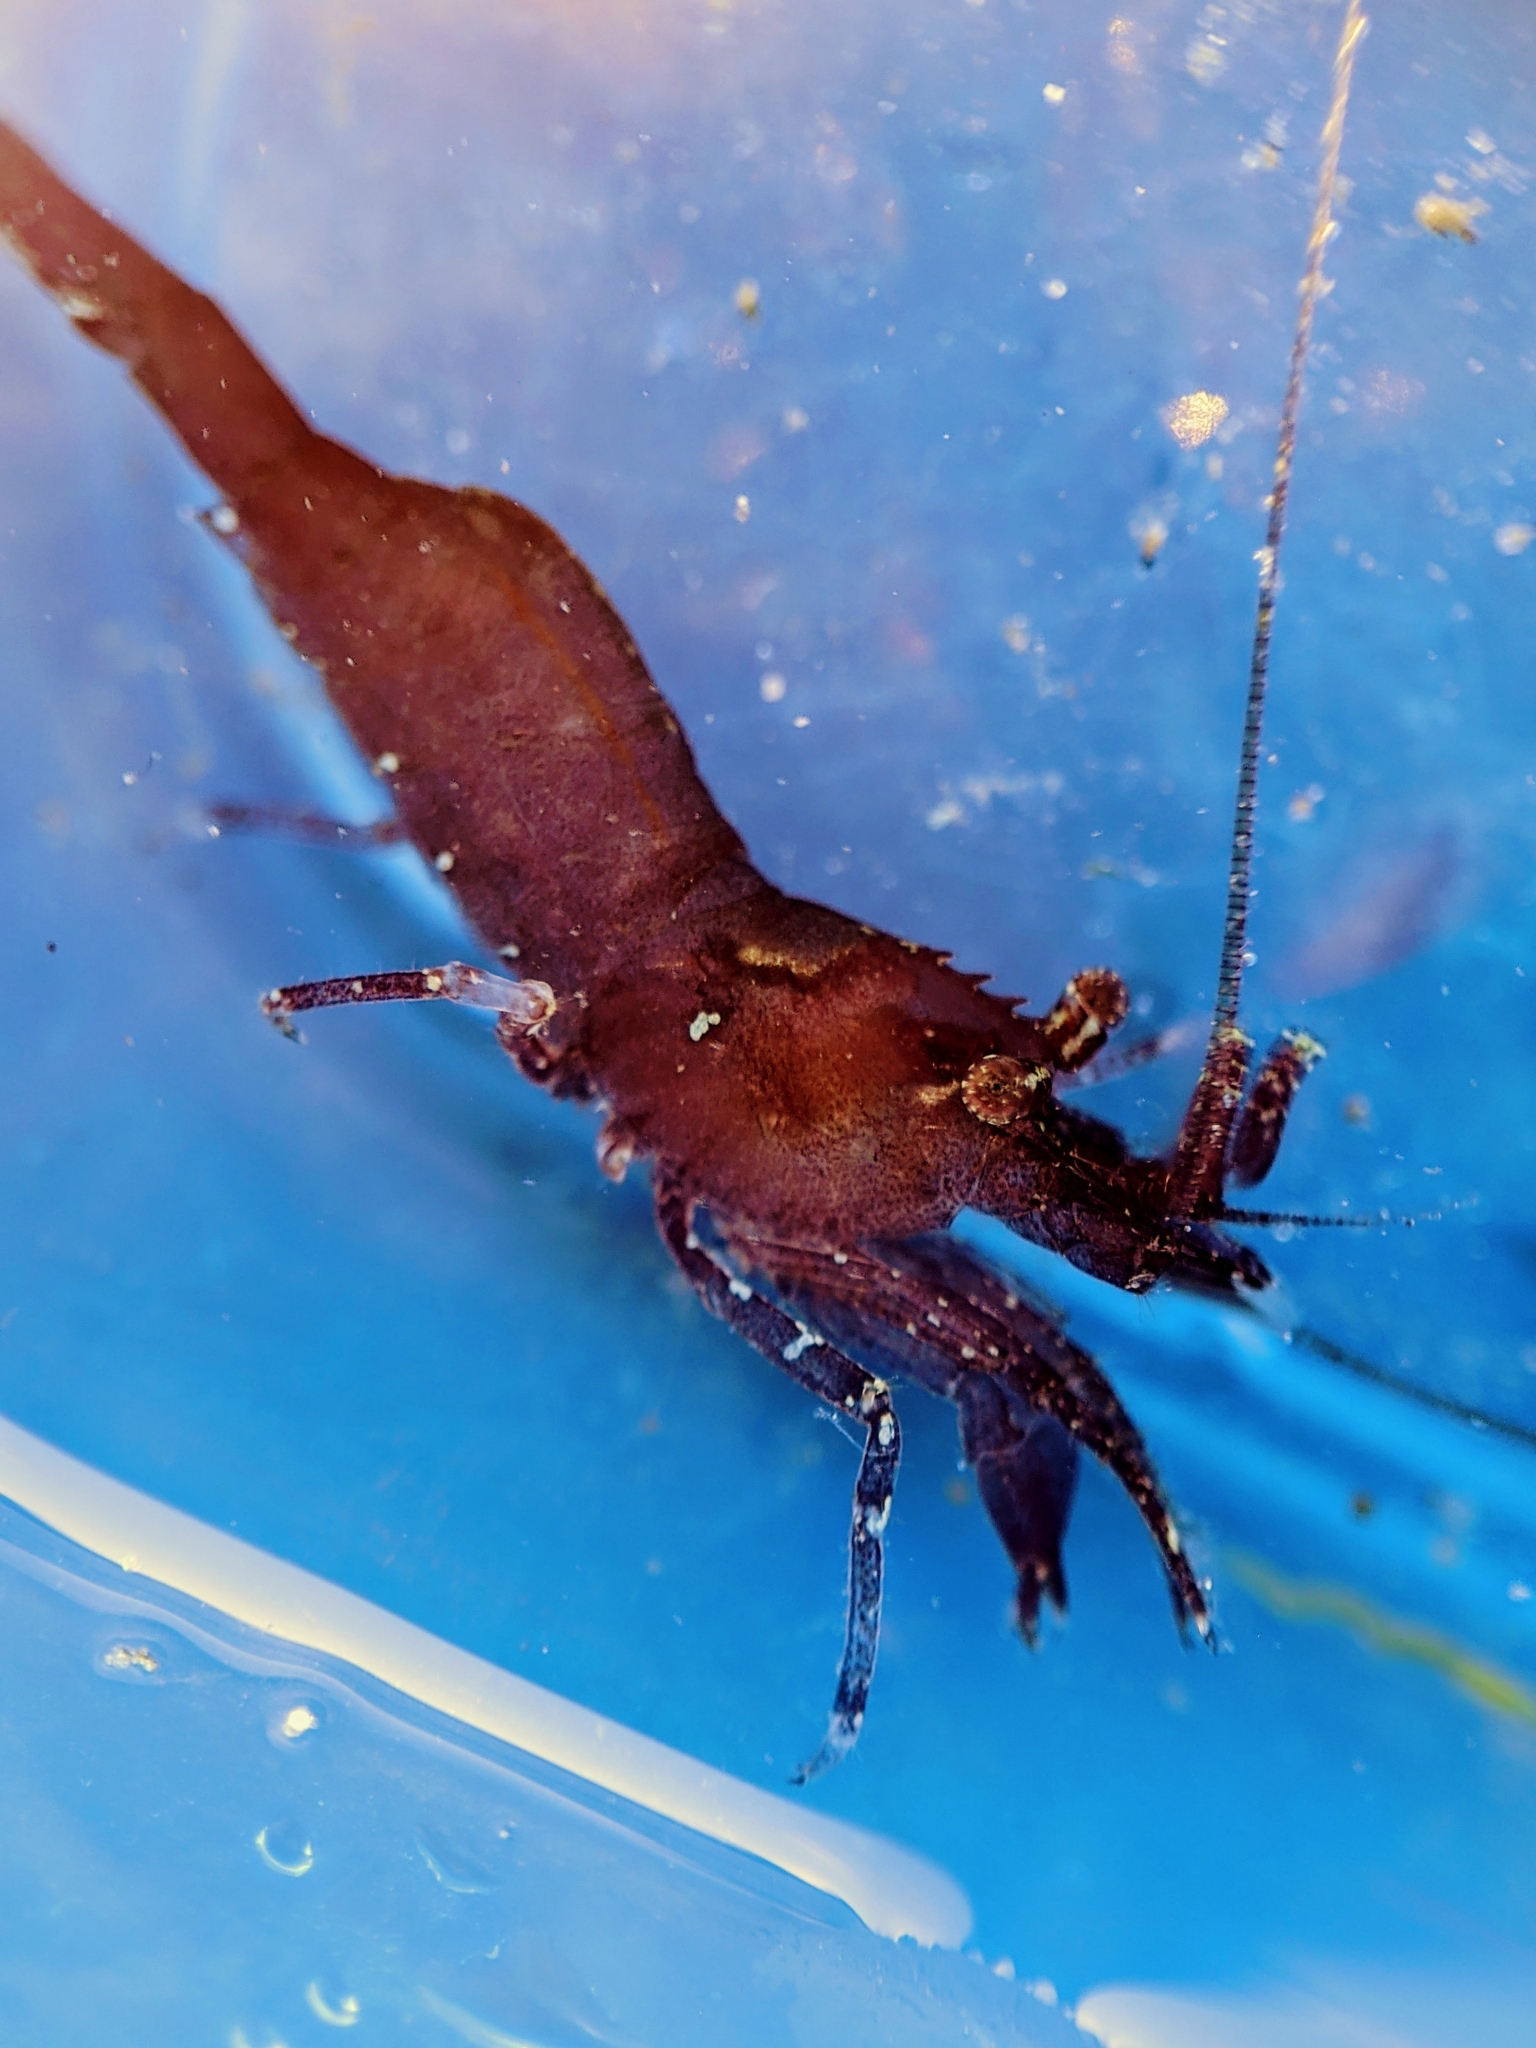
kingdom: Animalia
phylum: Arthropoda
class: Malacostraca
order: Decapoda
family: Thoridae
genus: Heptacarpus
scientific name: Heptacarpus taylori
